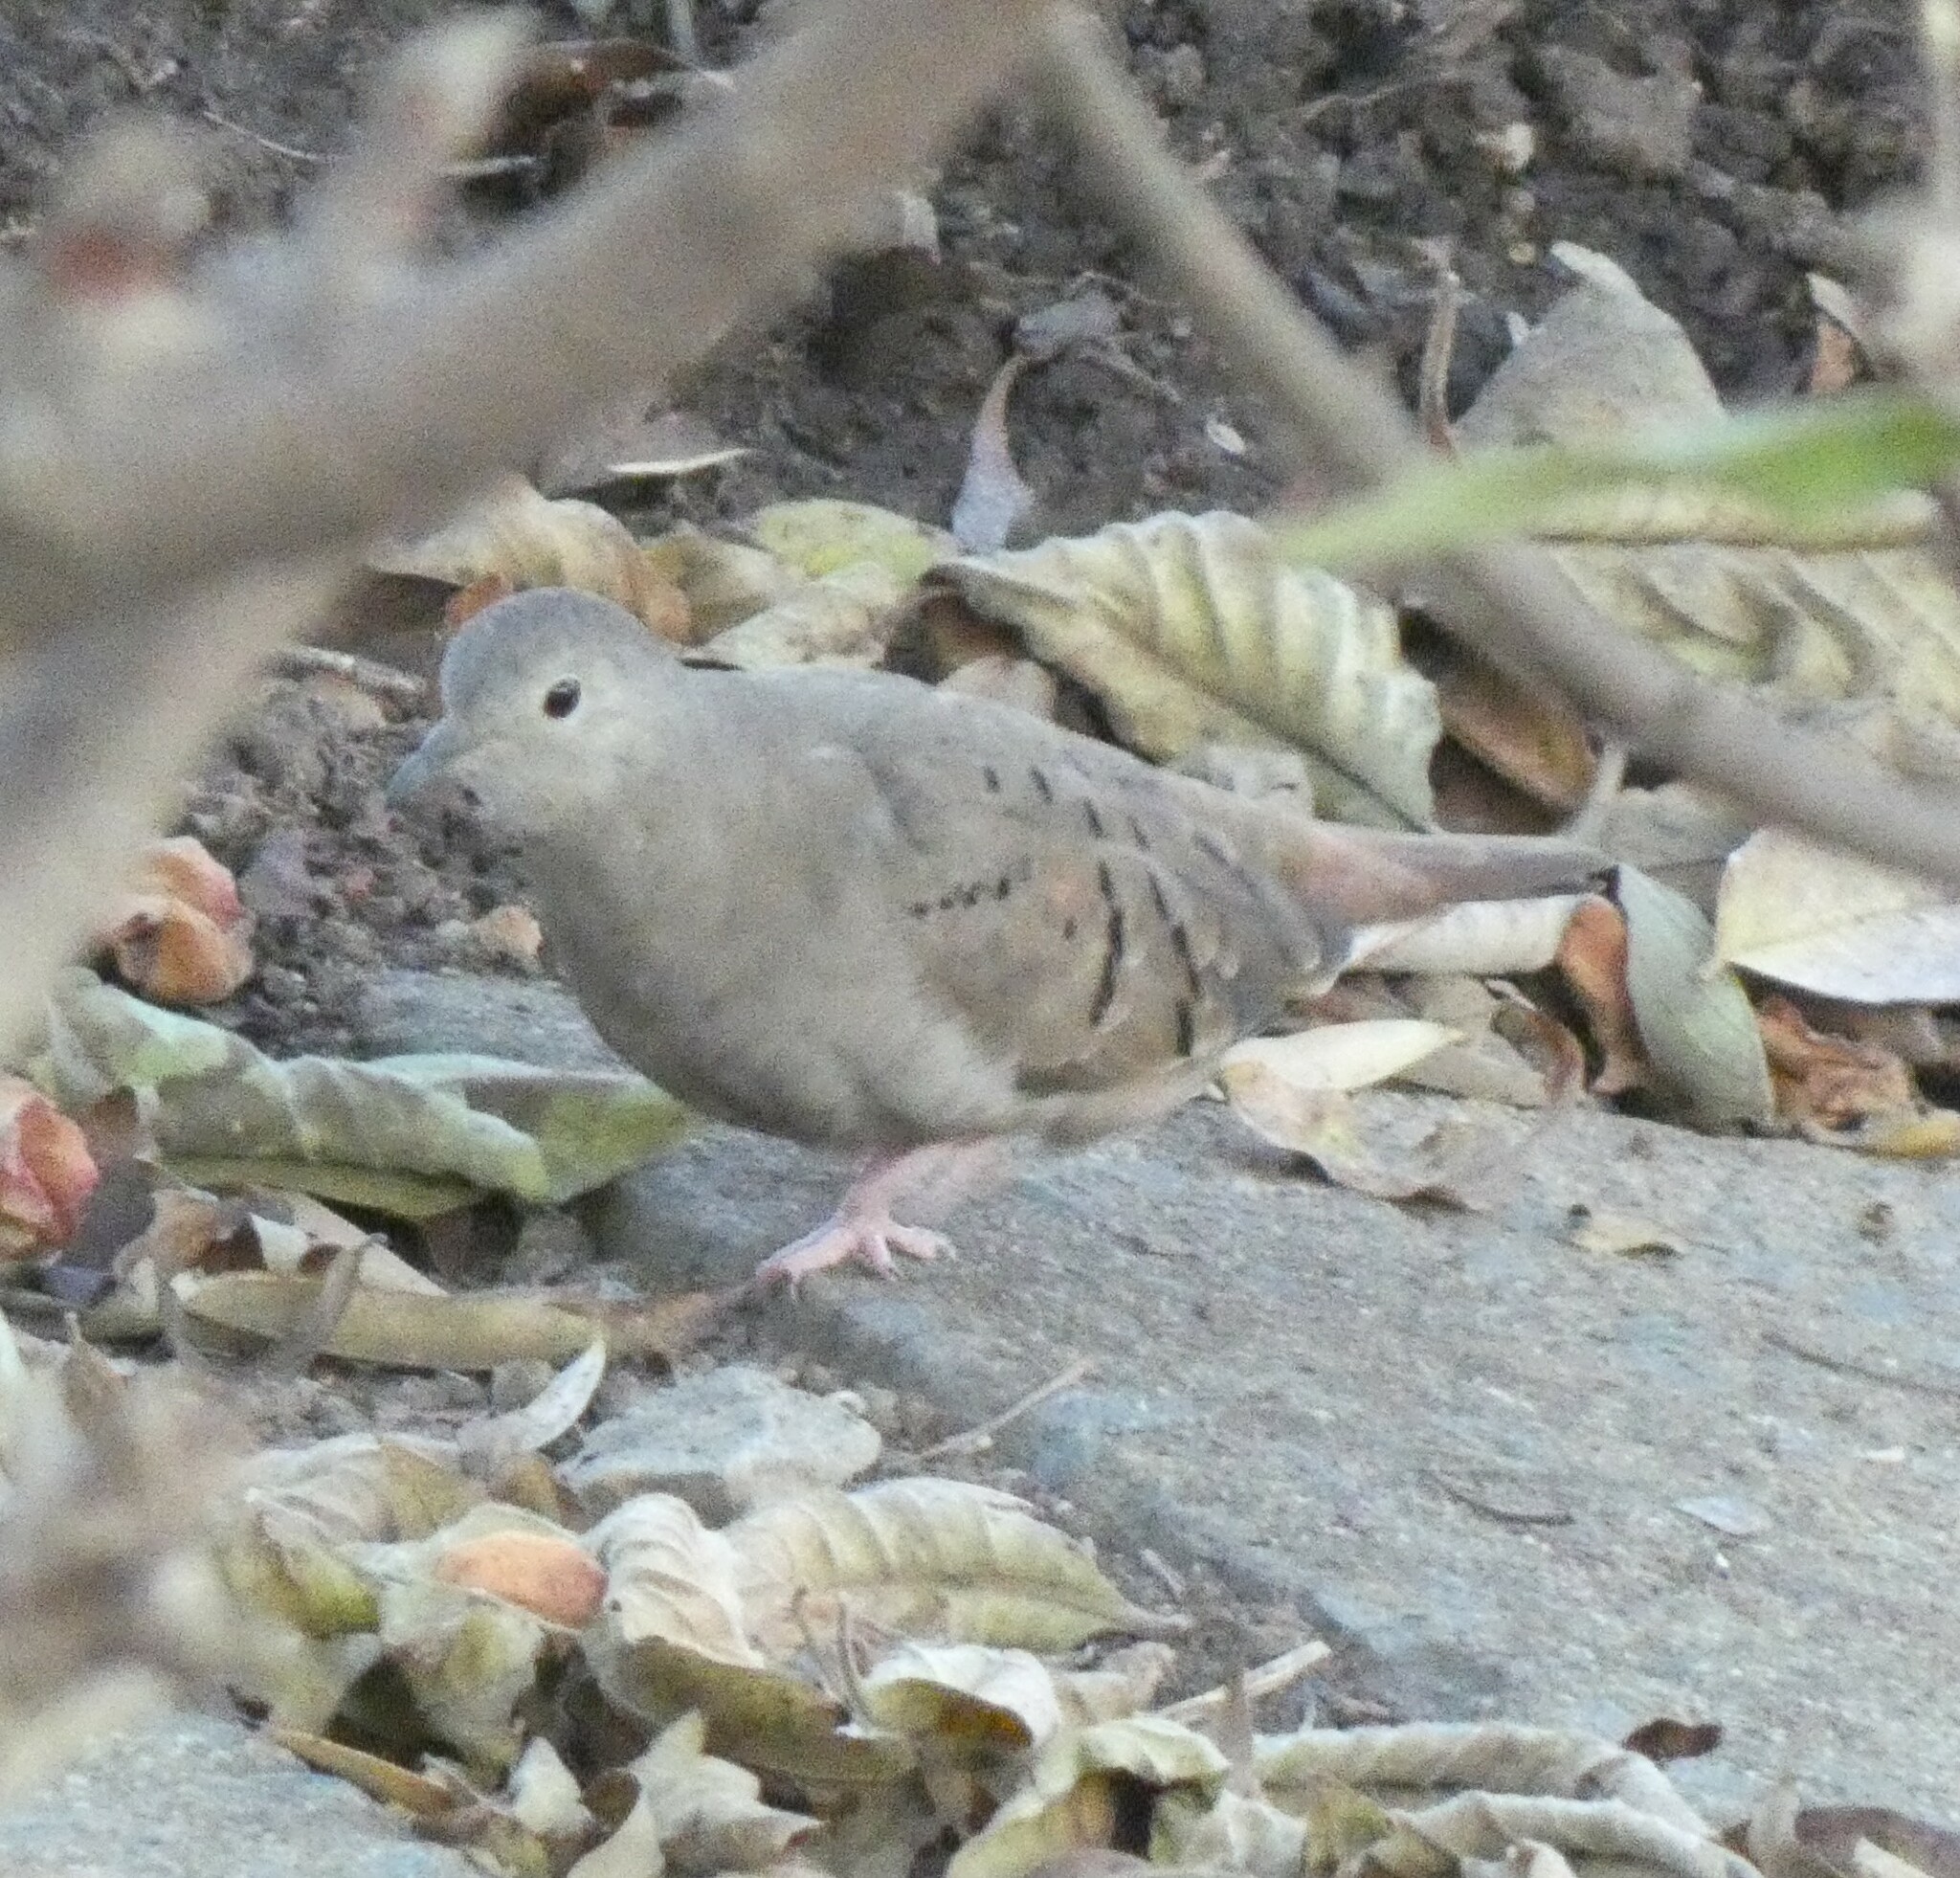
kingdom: Animalia
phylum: Chordata
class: Aves
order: Columbiformes
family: Columbidae
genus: Columbina
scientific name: Columbina talpacoti
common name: Ruddy ground dove
